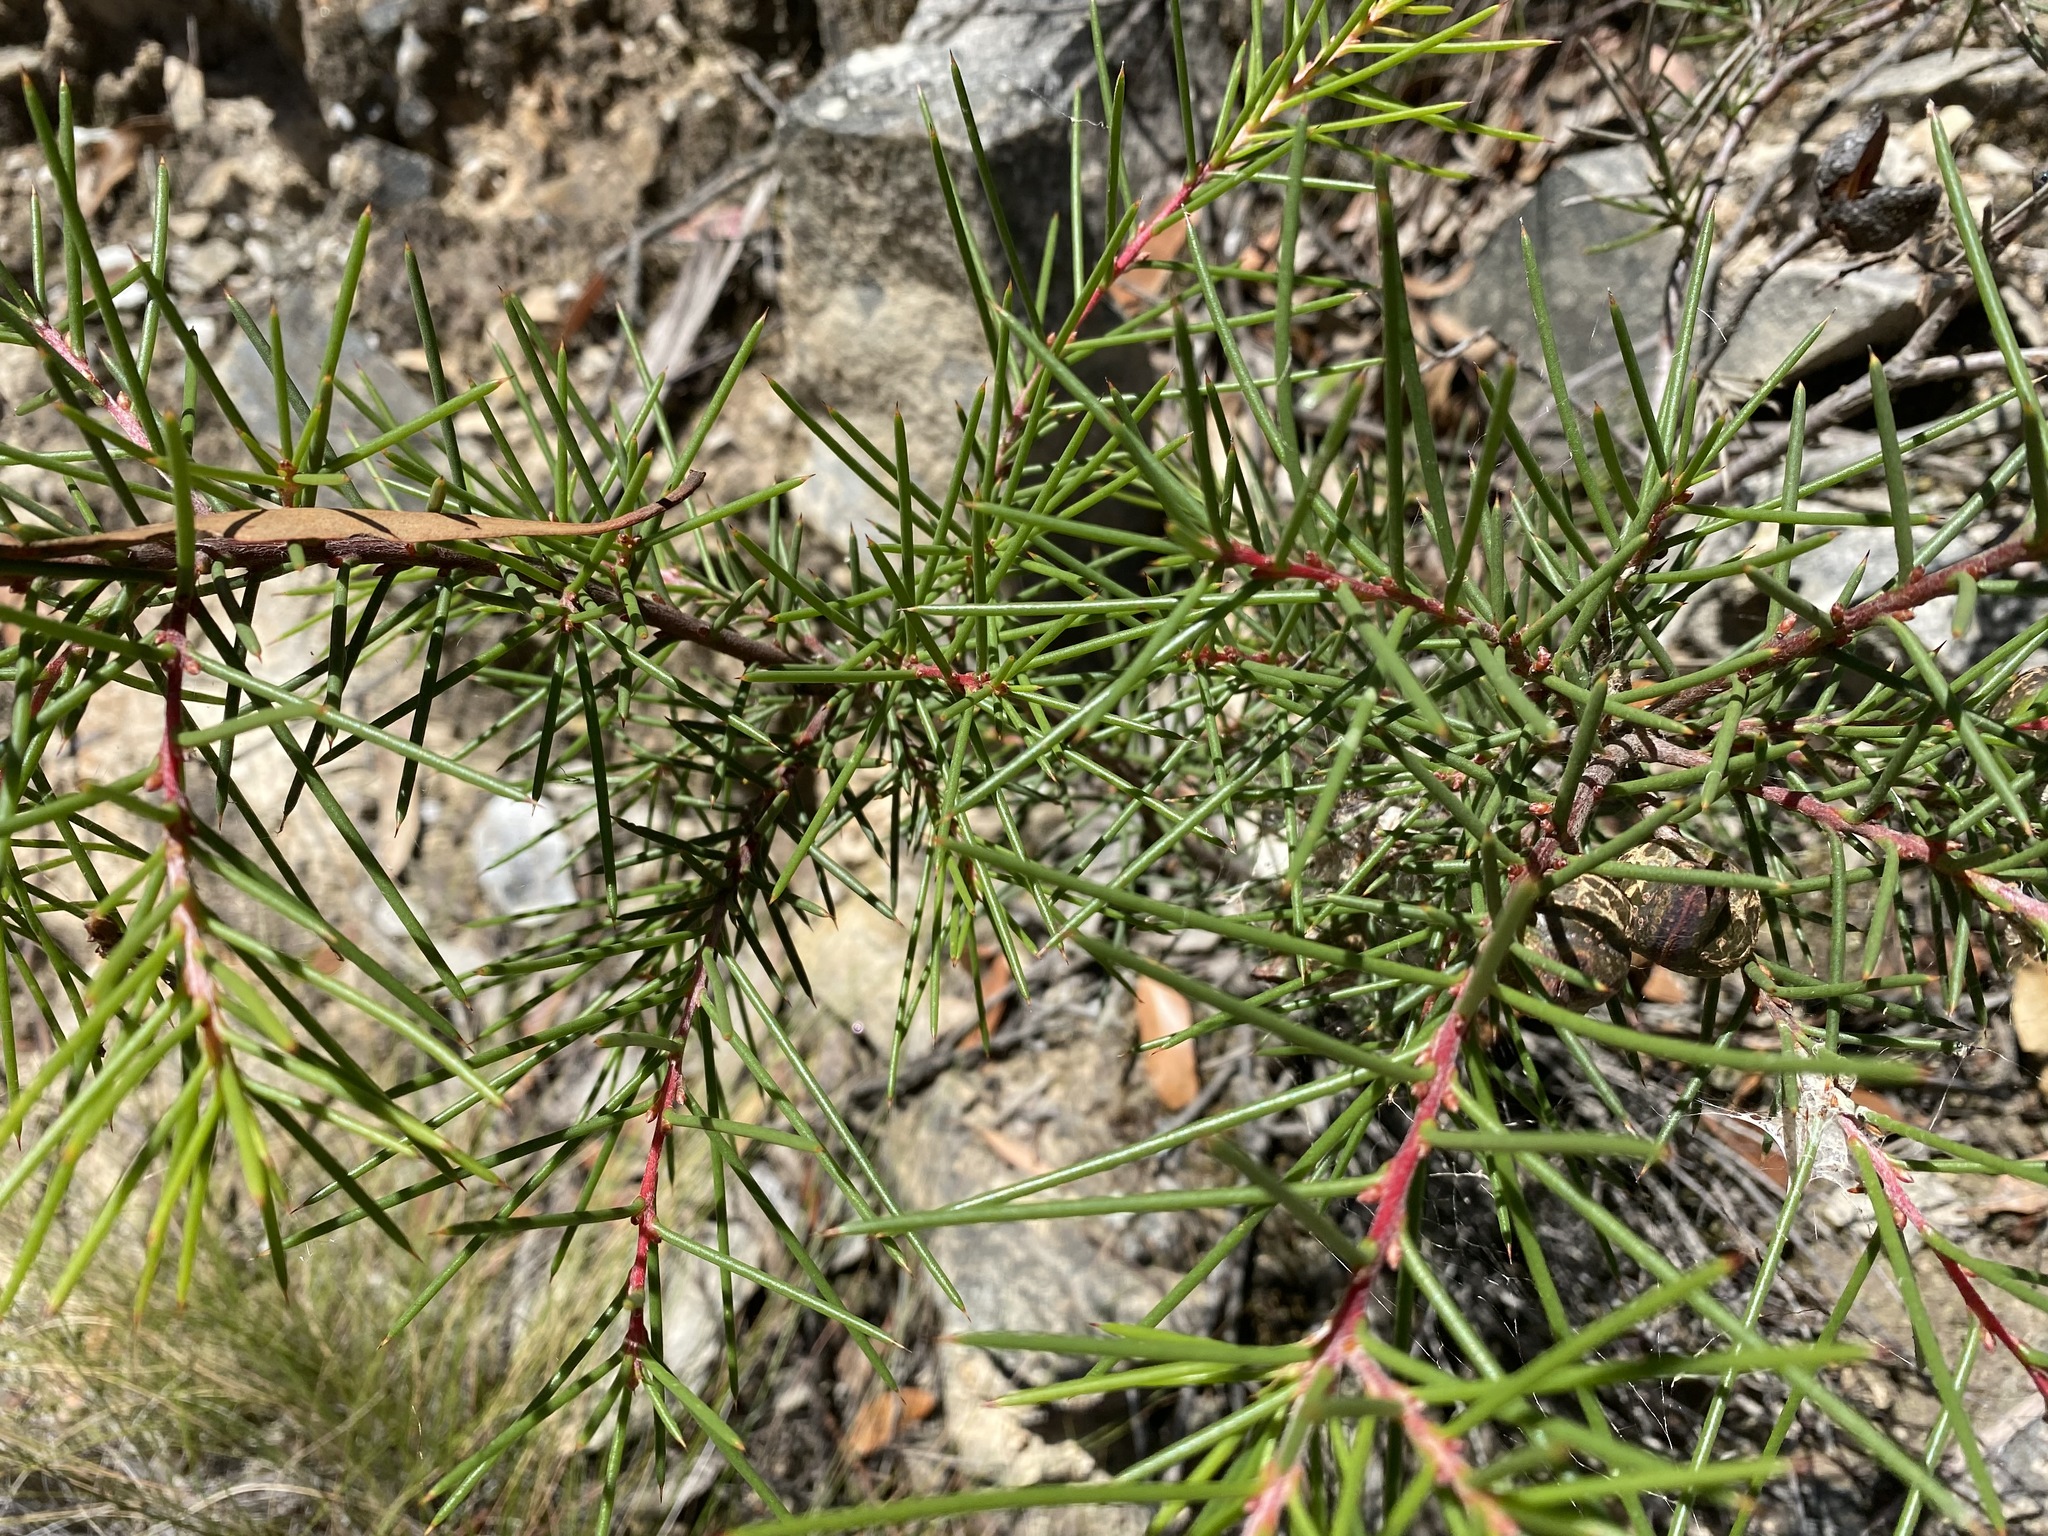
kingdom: Plantae
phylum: Tracheophyta
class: Magnoliopsida
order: Proteales
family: Proteaceae
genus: Hakea
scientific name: Hakea decurrens
